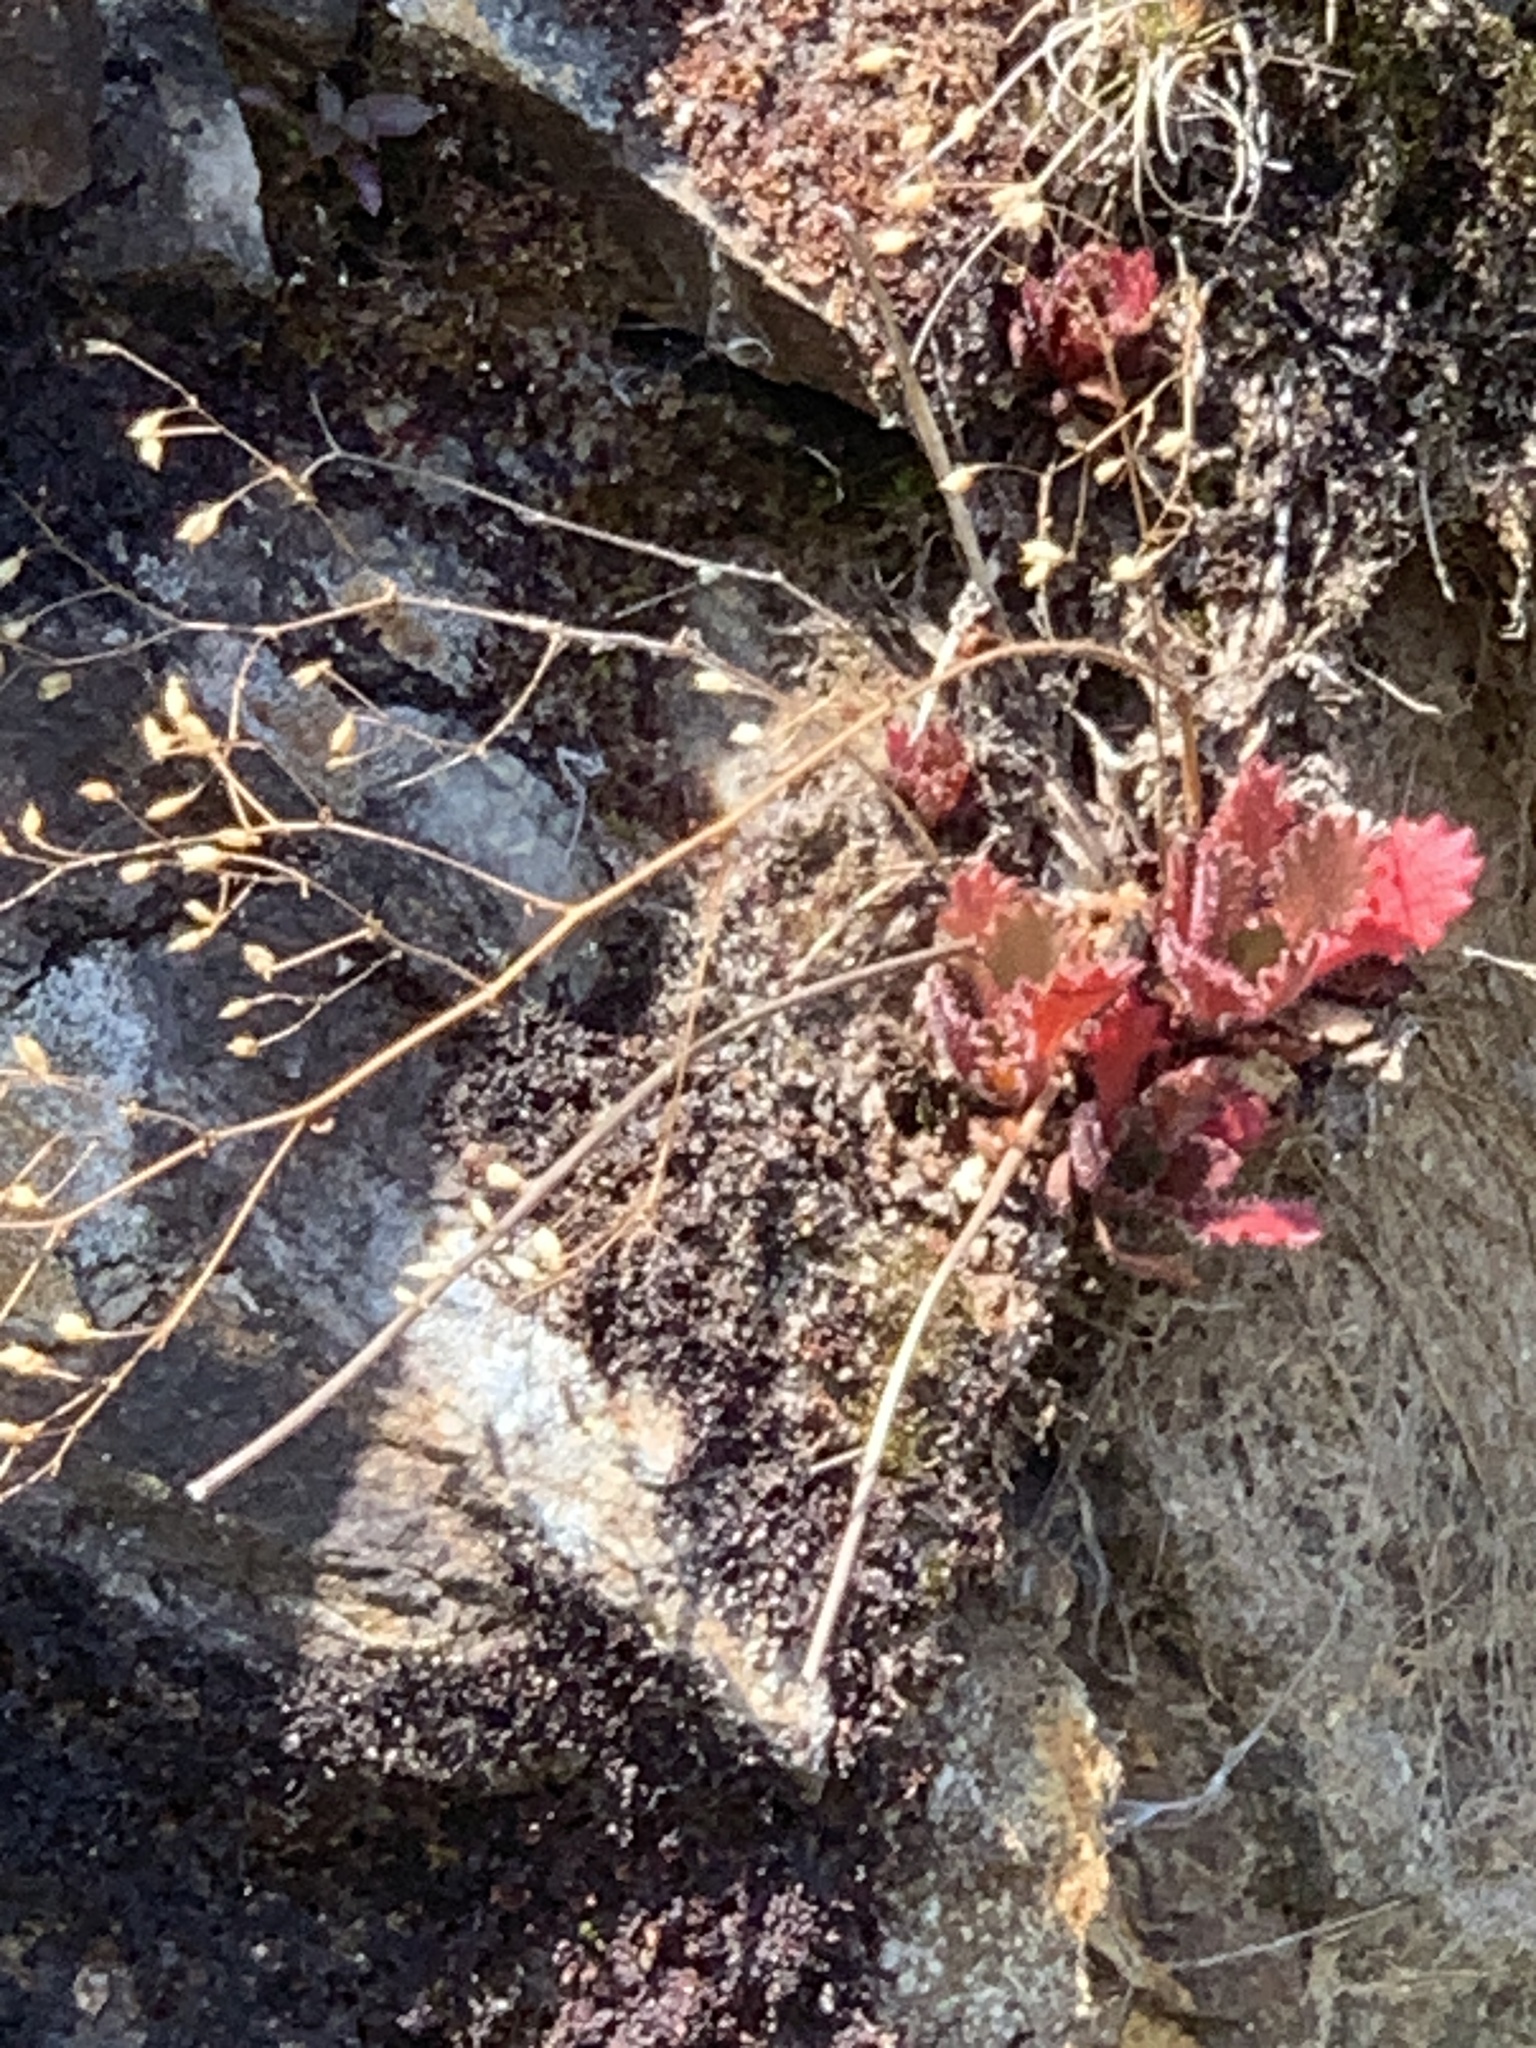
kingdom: Plantae
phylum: Tracheophyta
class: Magnoliopsida
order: Saxifragales
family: Saxifragaceae
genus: Micranthes
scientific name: Micranthes petiolaris
